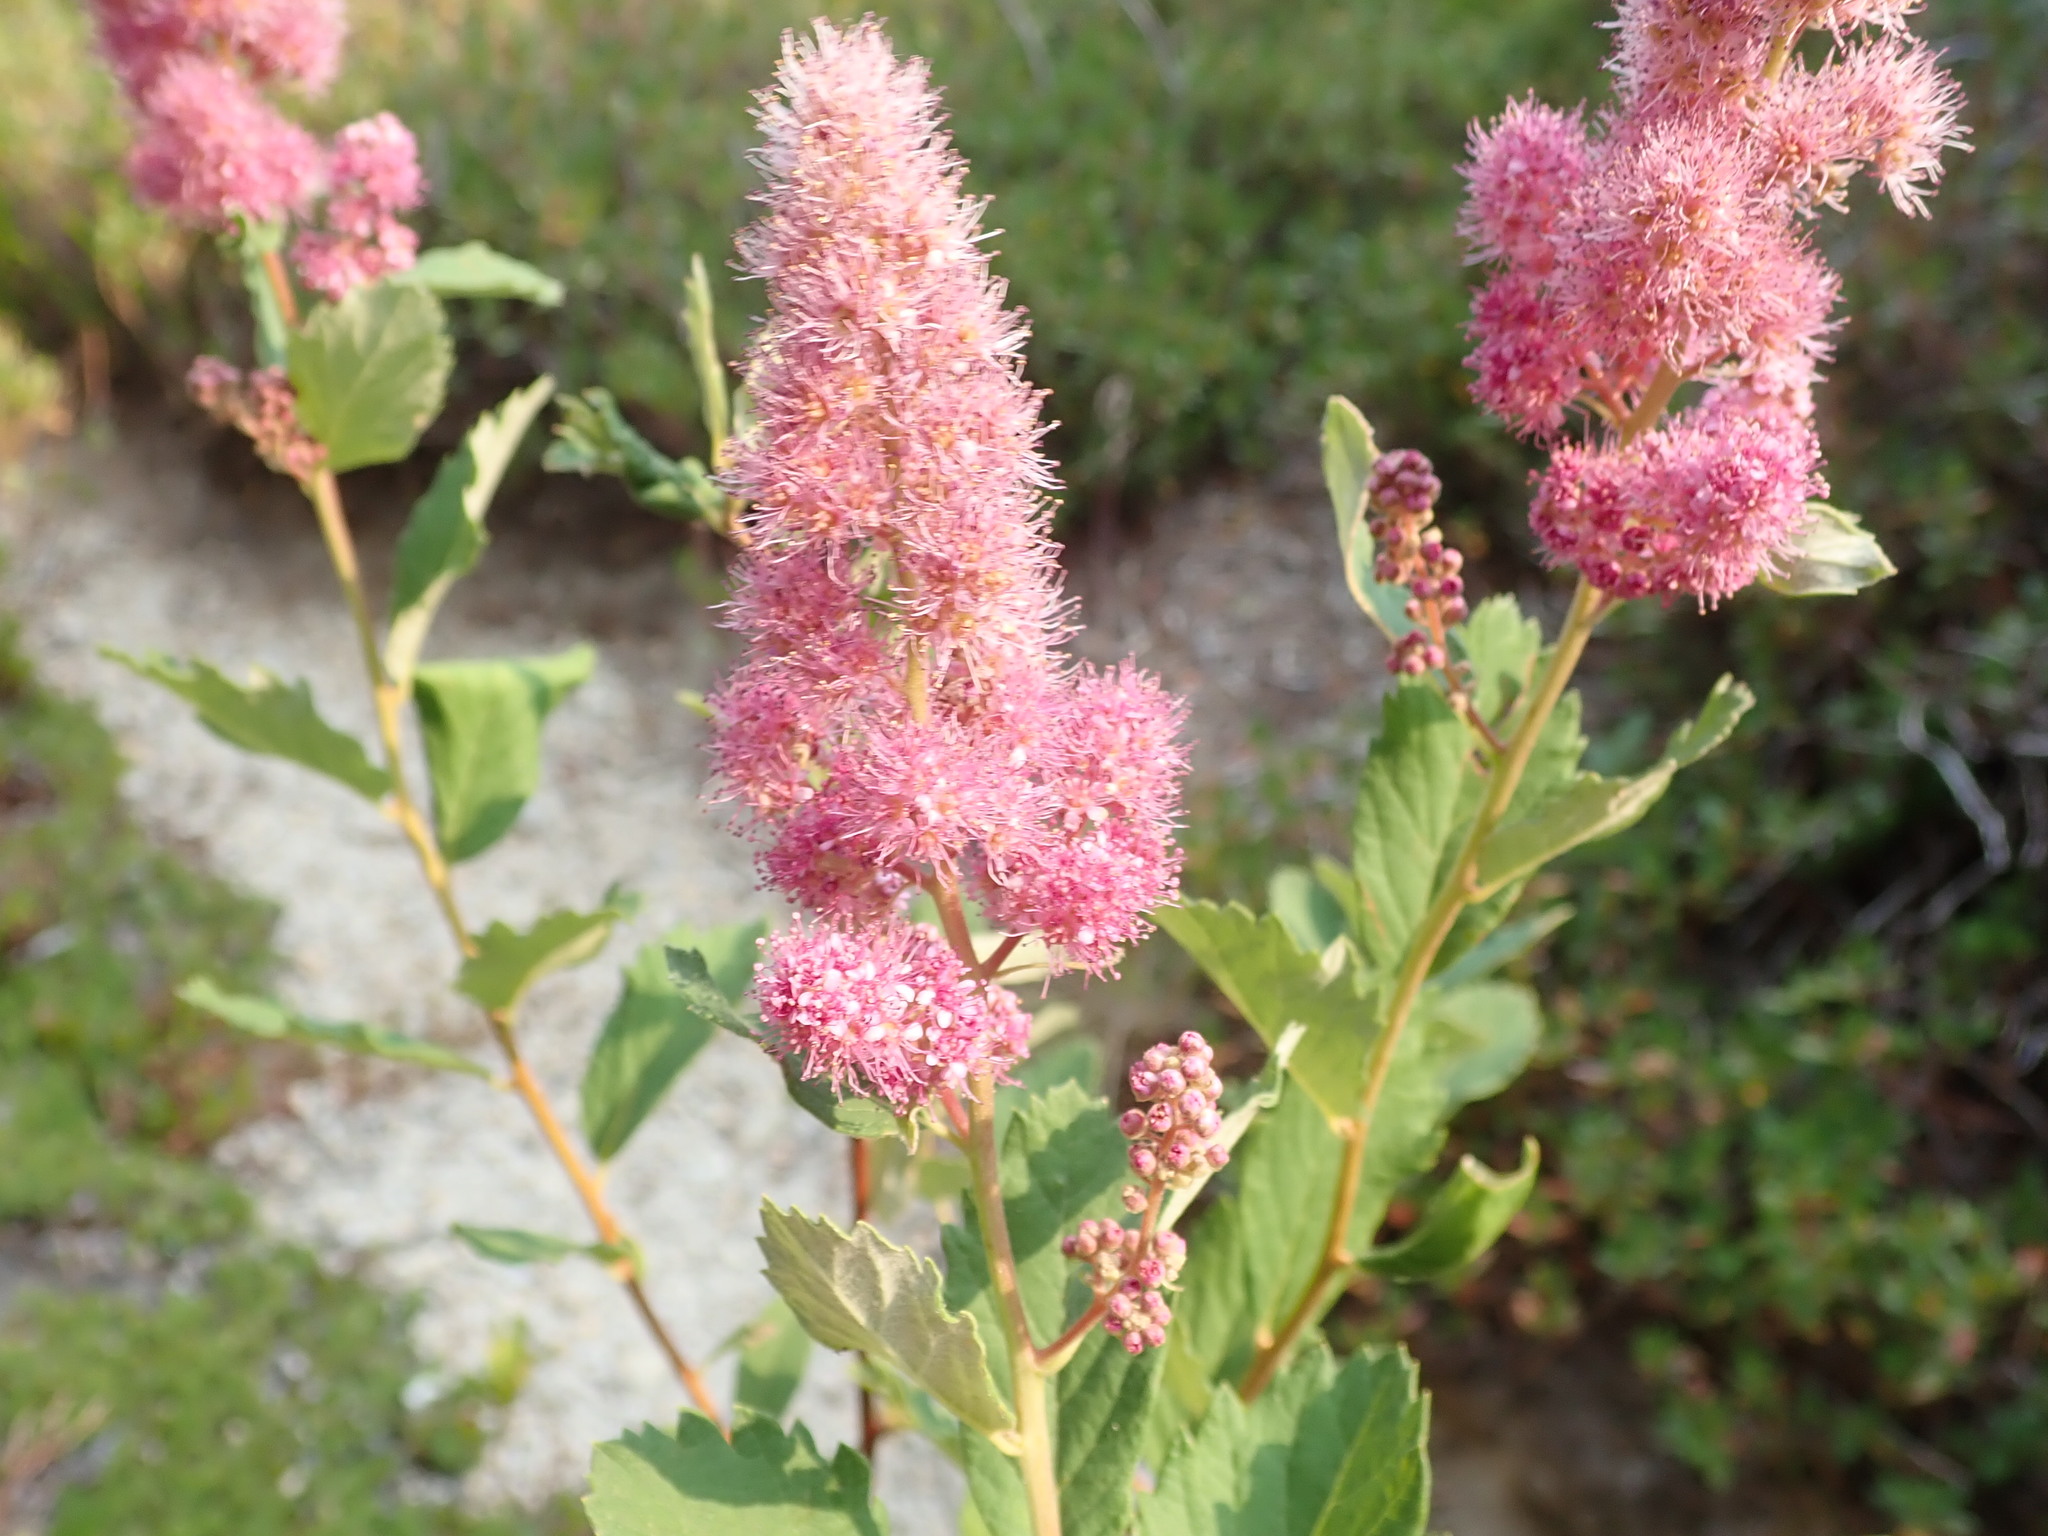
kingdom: Plantae
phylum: Tracheophyta
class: Magnoliopsida
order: Rosales
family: Rosaceae
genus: Spiraea
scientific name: Spiraea douglasii
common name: Steeplebush
